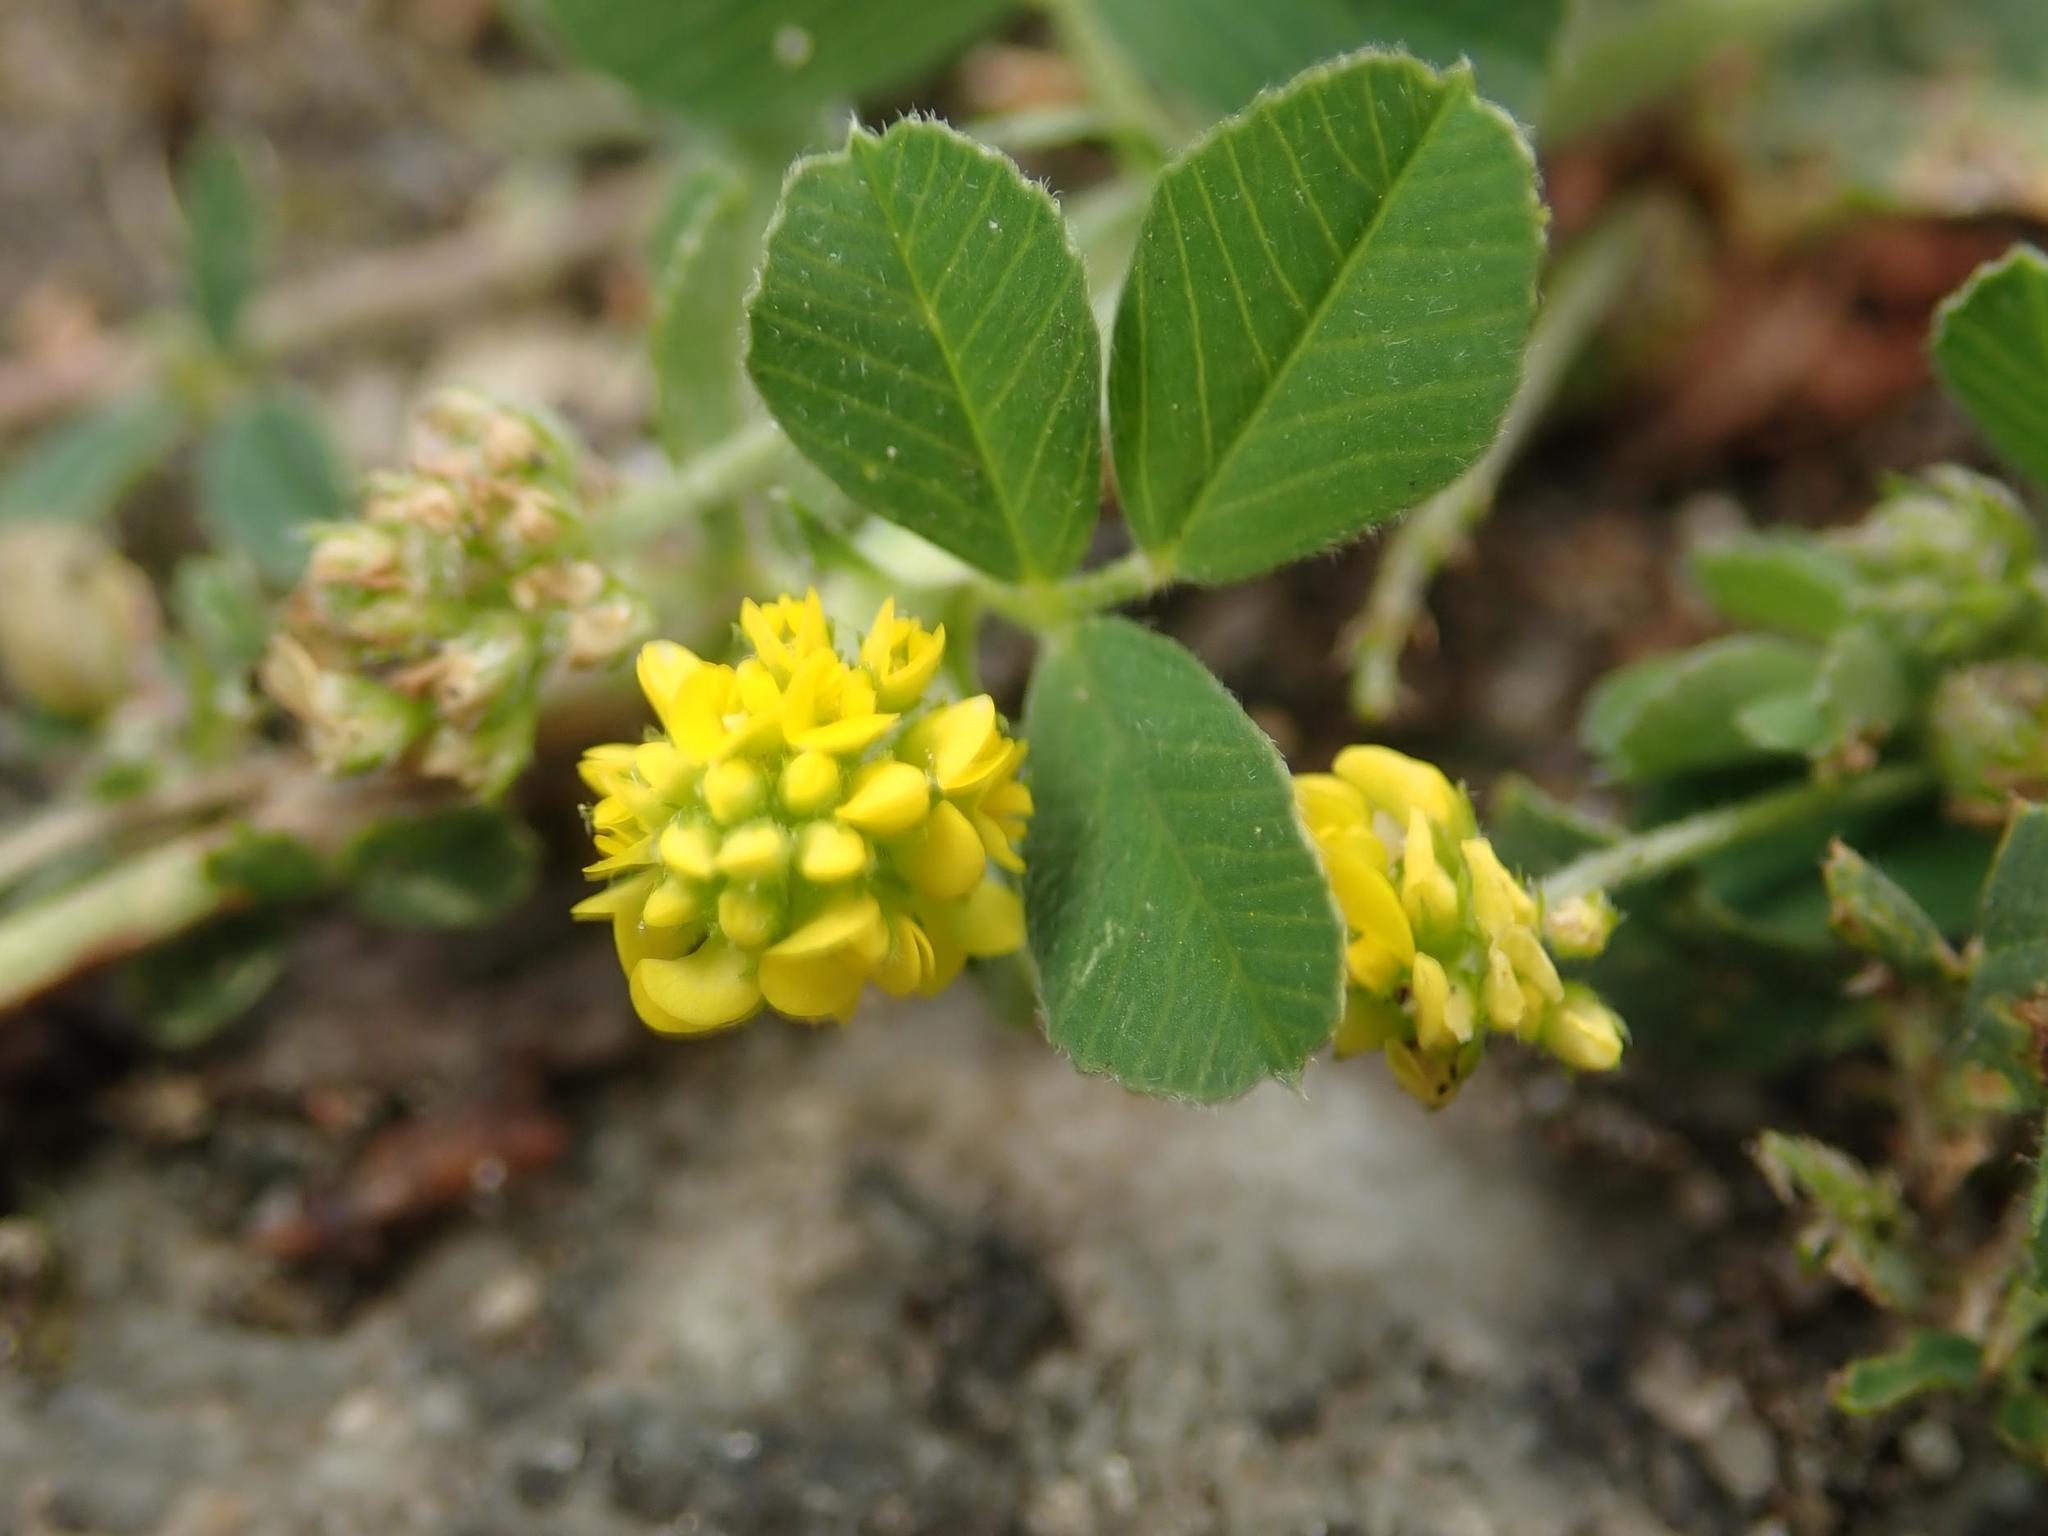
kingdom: Plantae
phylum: Tracheophyta
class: Magnoliopsida
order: Fabales
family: Fabaceae
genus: Medicago
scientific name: Medicago lupulina
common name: Black medick
